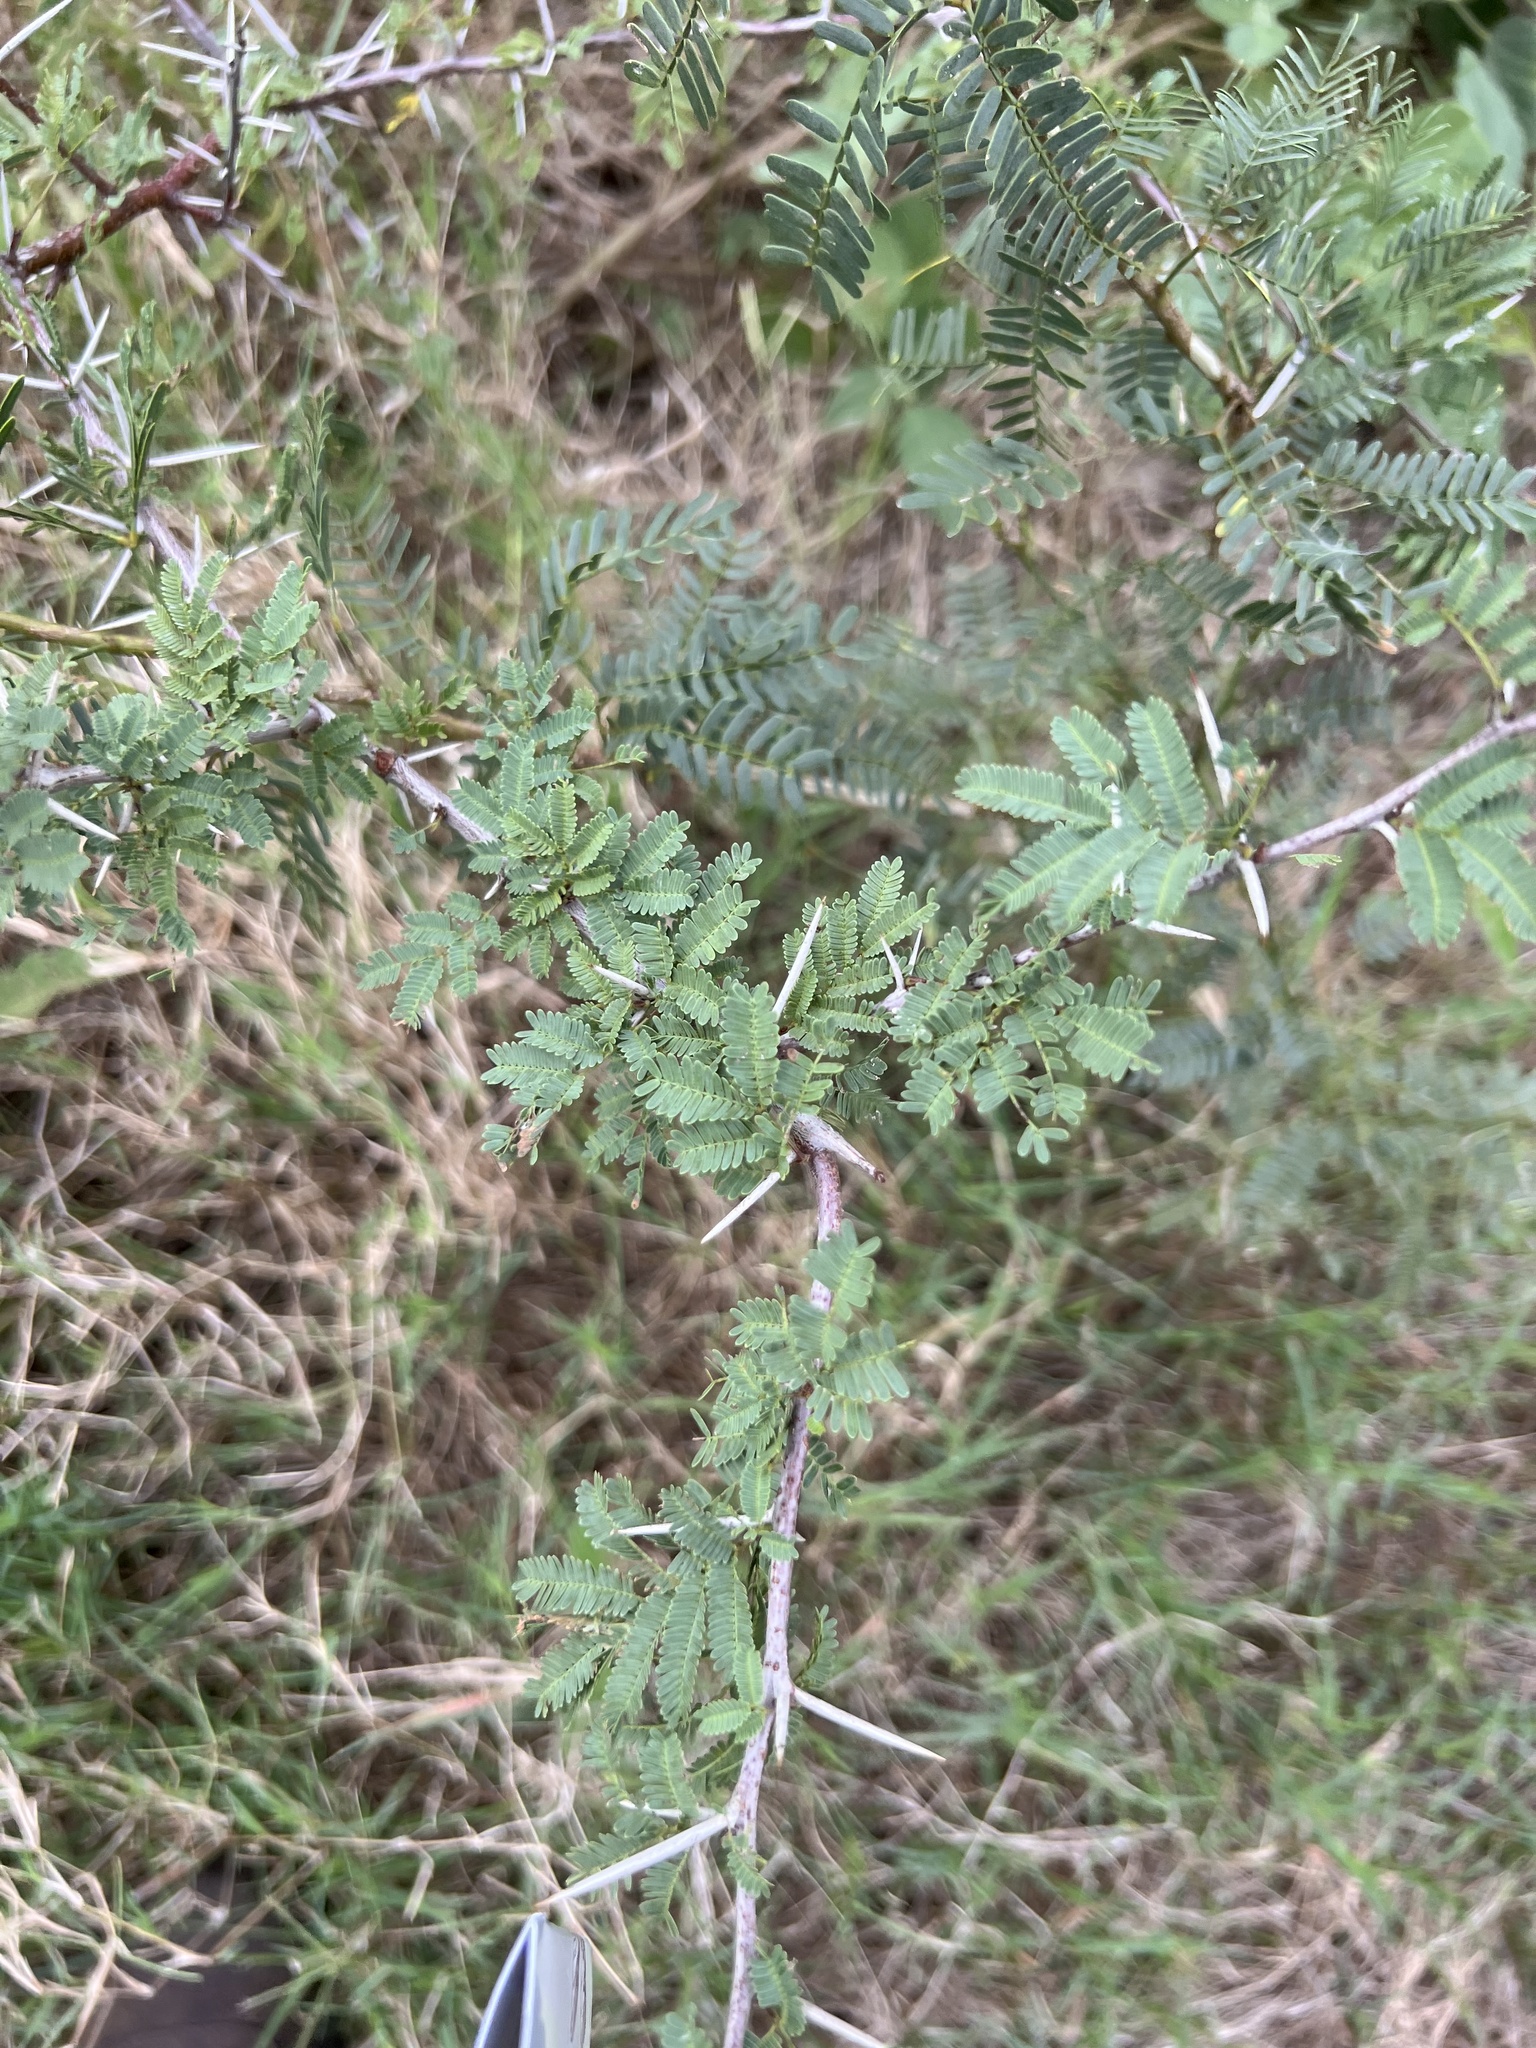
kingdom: Plantae
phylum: Tracheophyta
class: Magnoliopsida
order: Fabales
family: Fabaceae
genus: Vachellia
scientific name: Vachellia farnesiana
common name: Sweet acacia
